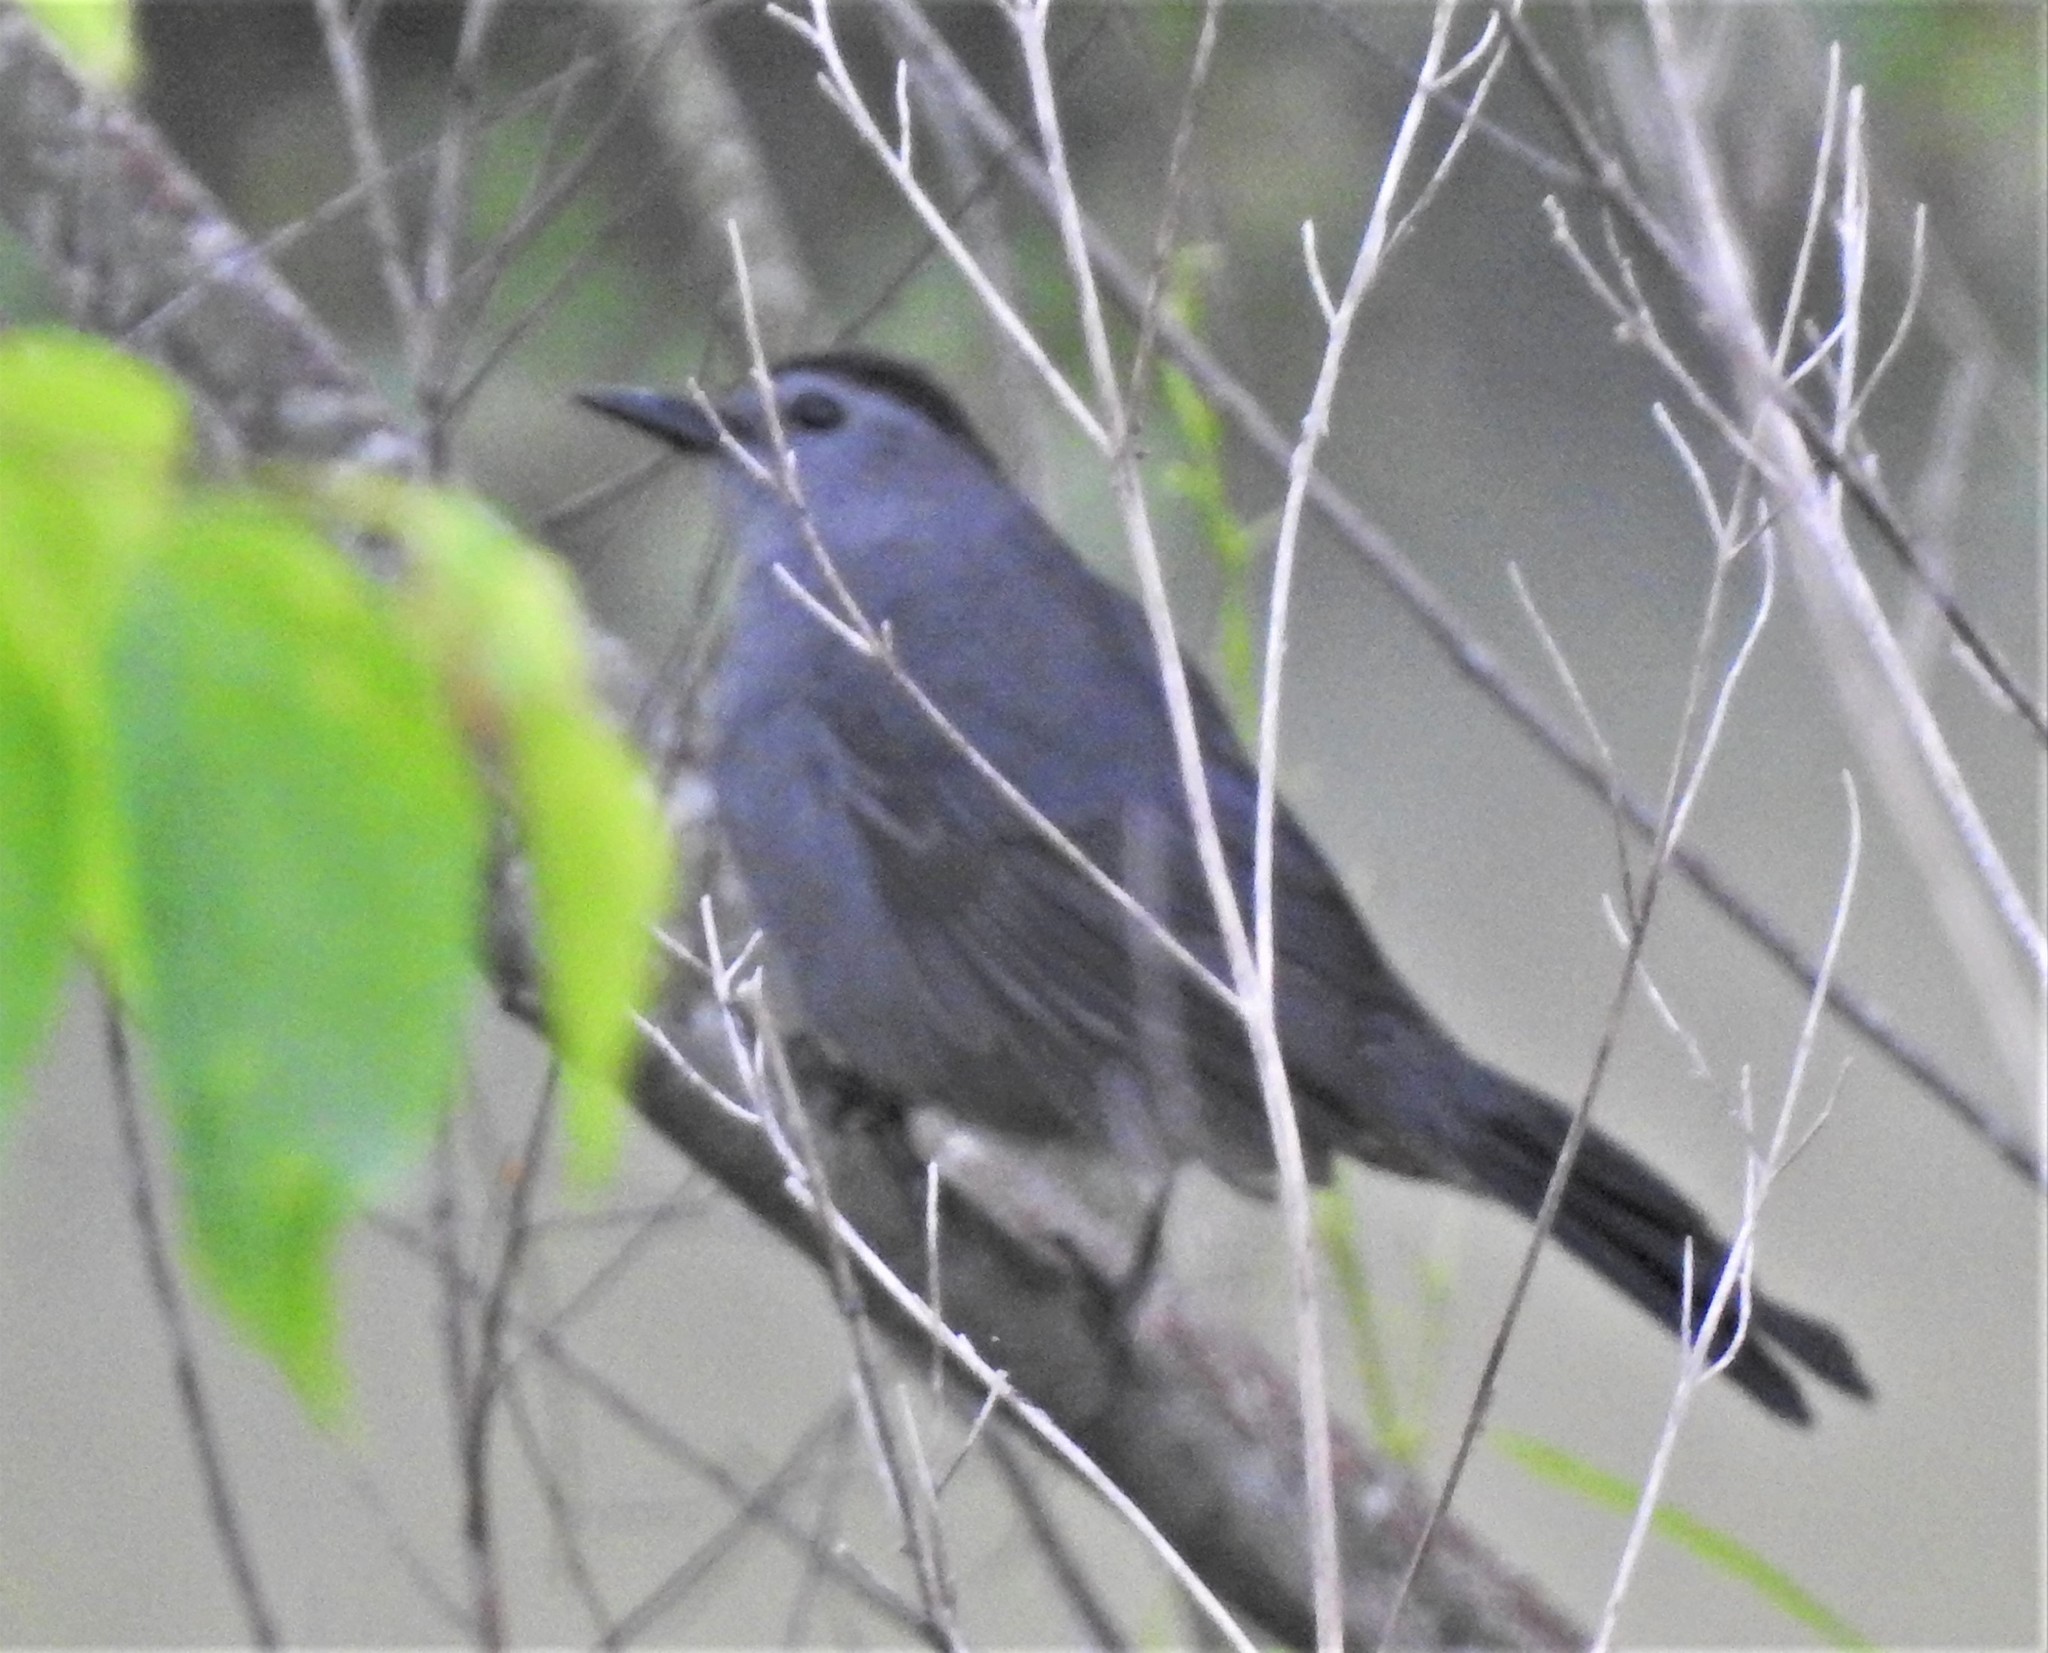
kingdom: Animalia
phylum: Chordata
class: Aves
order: Passeriformes
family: Mimidae
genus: Dumetella
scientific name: Dumetella carolinensis
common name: Gray catbird
